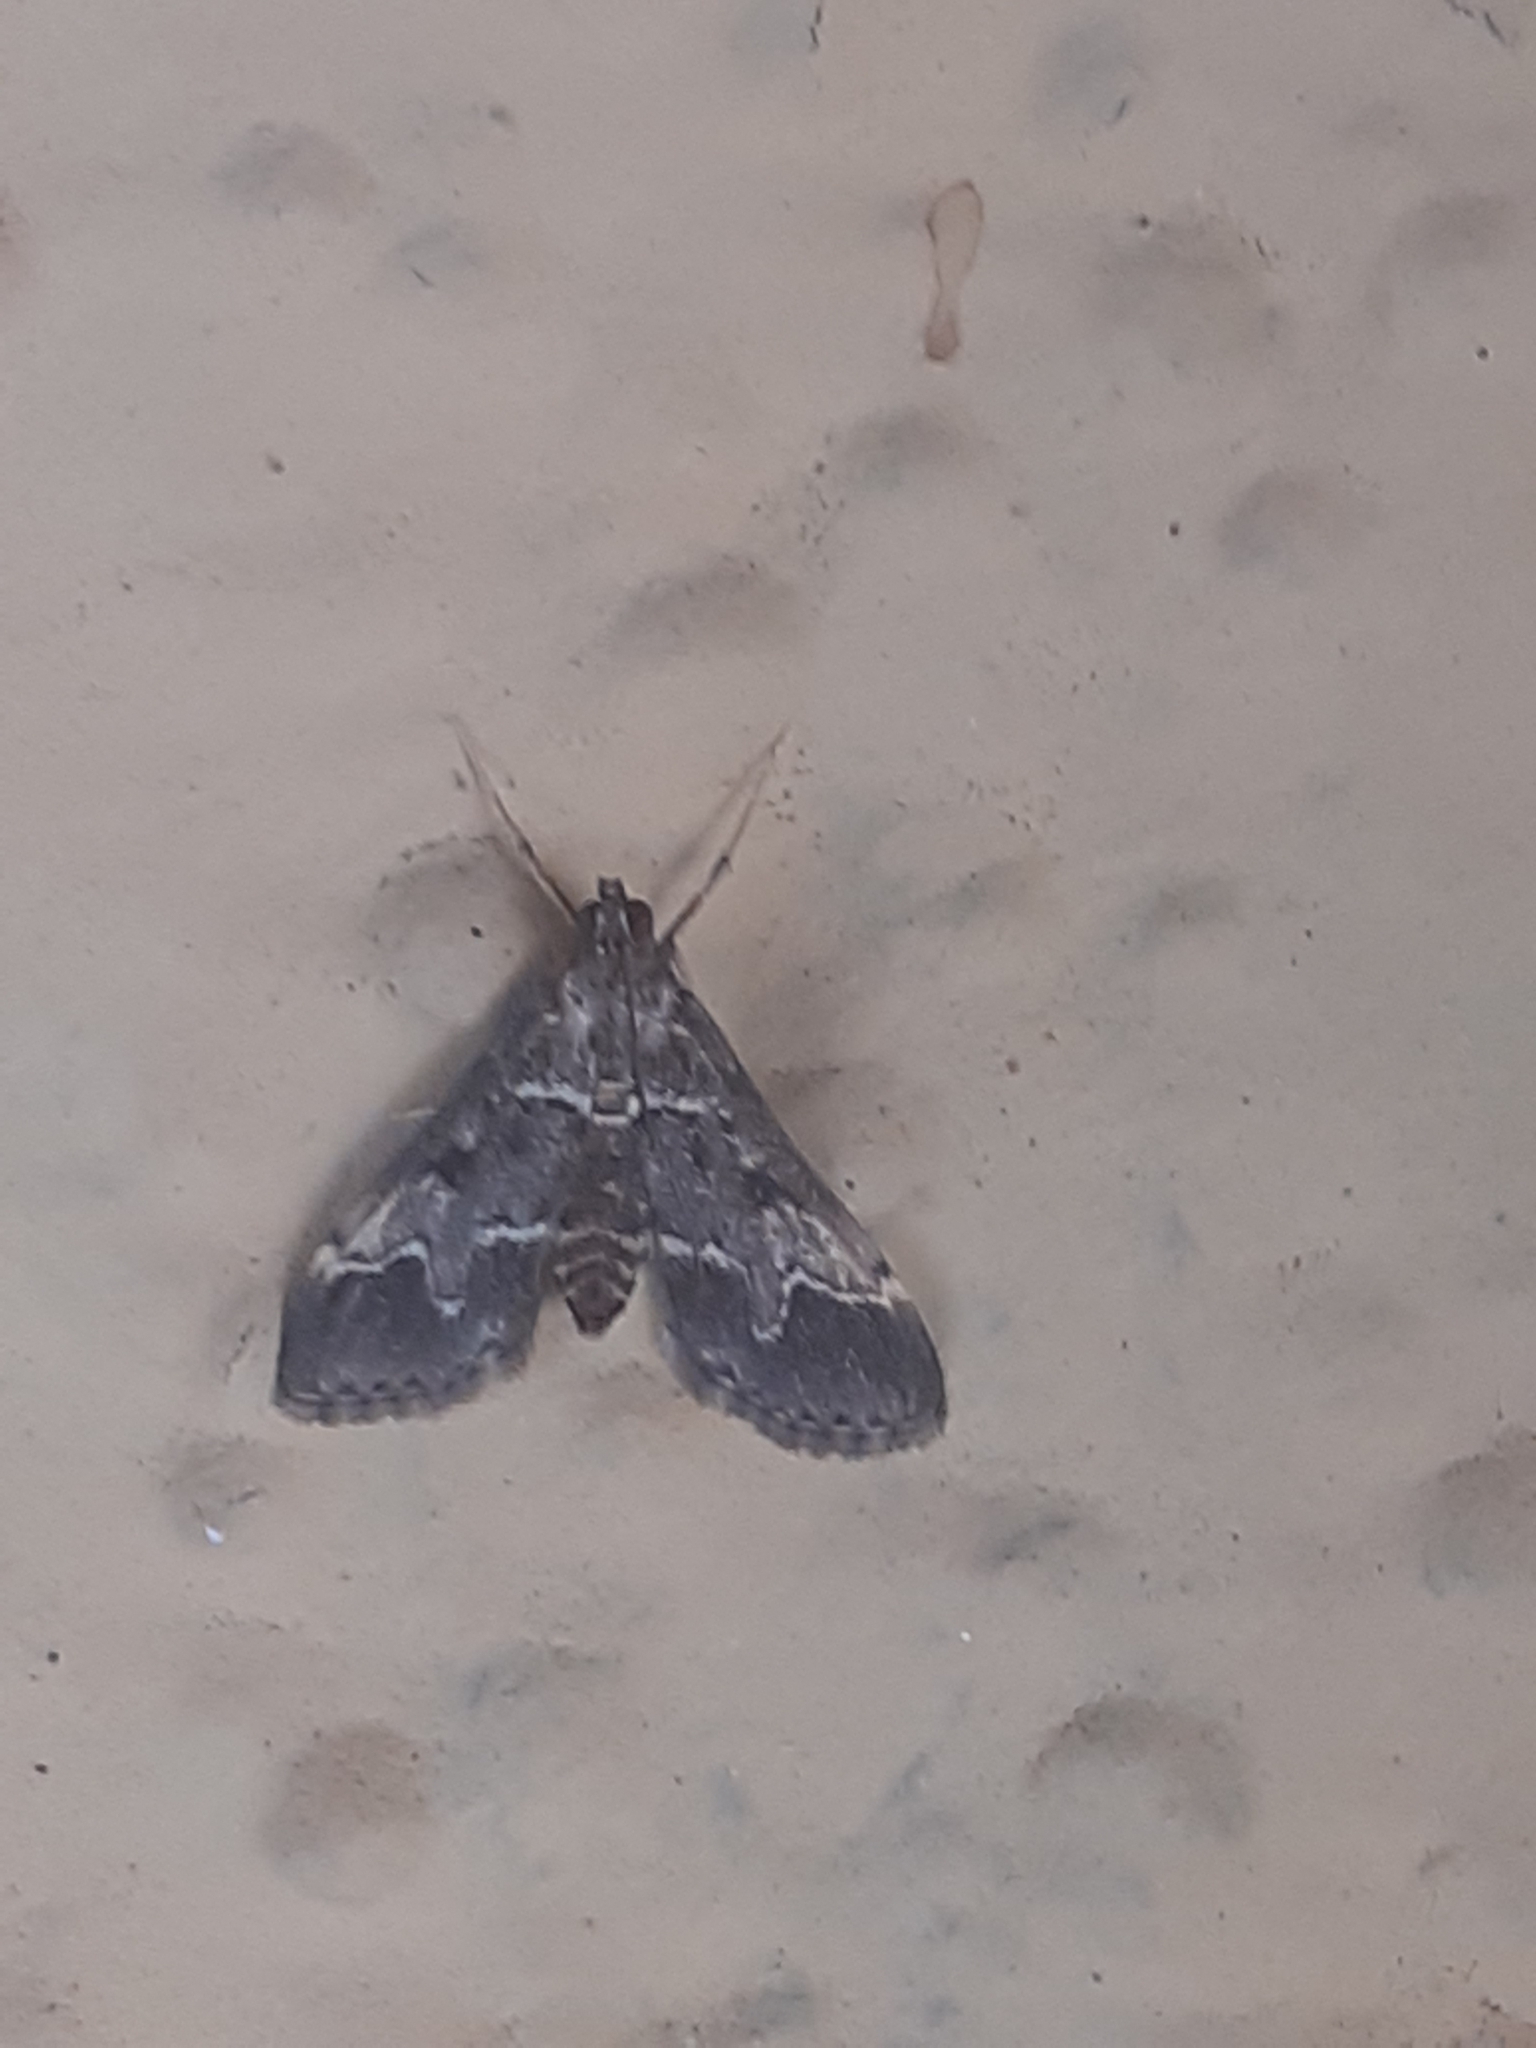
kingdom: Animalia
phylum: Arthropoda
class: Insecta
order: Lepidoptera
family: Crambidae
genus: Duponchelia
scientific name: Duponchelia fovealis
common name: Crambid moth
